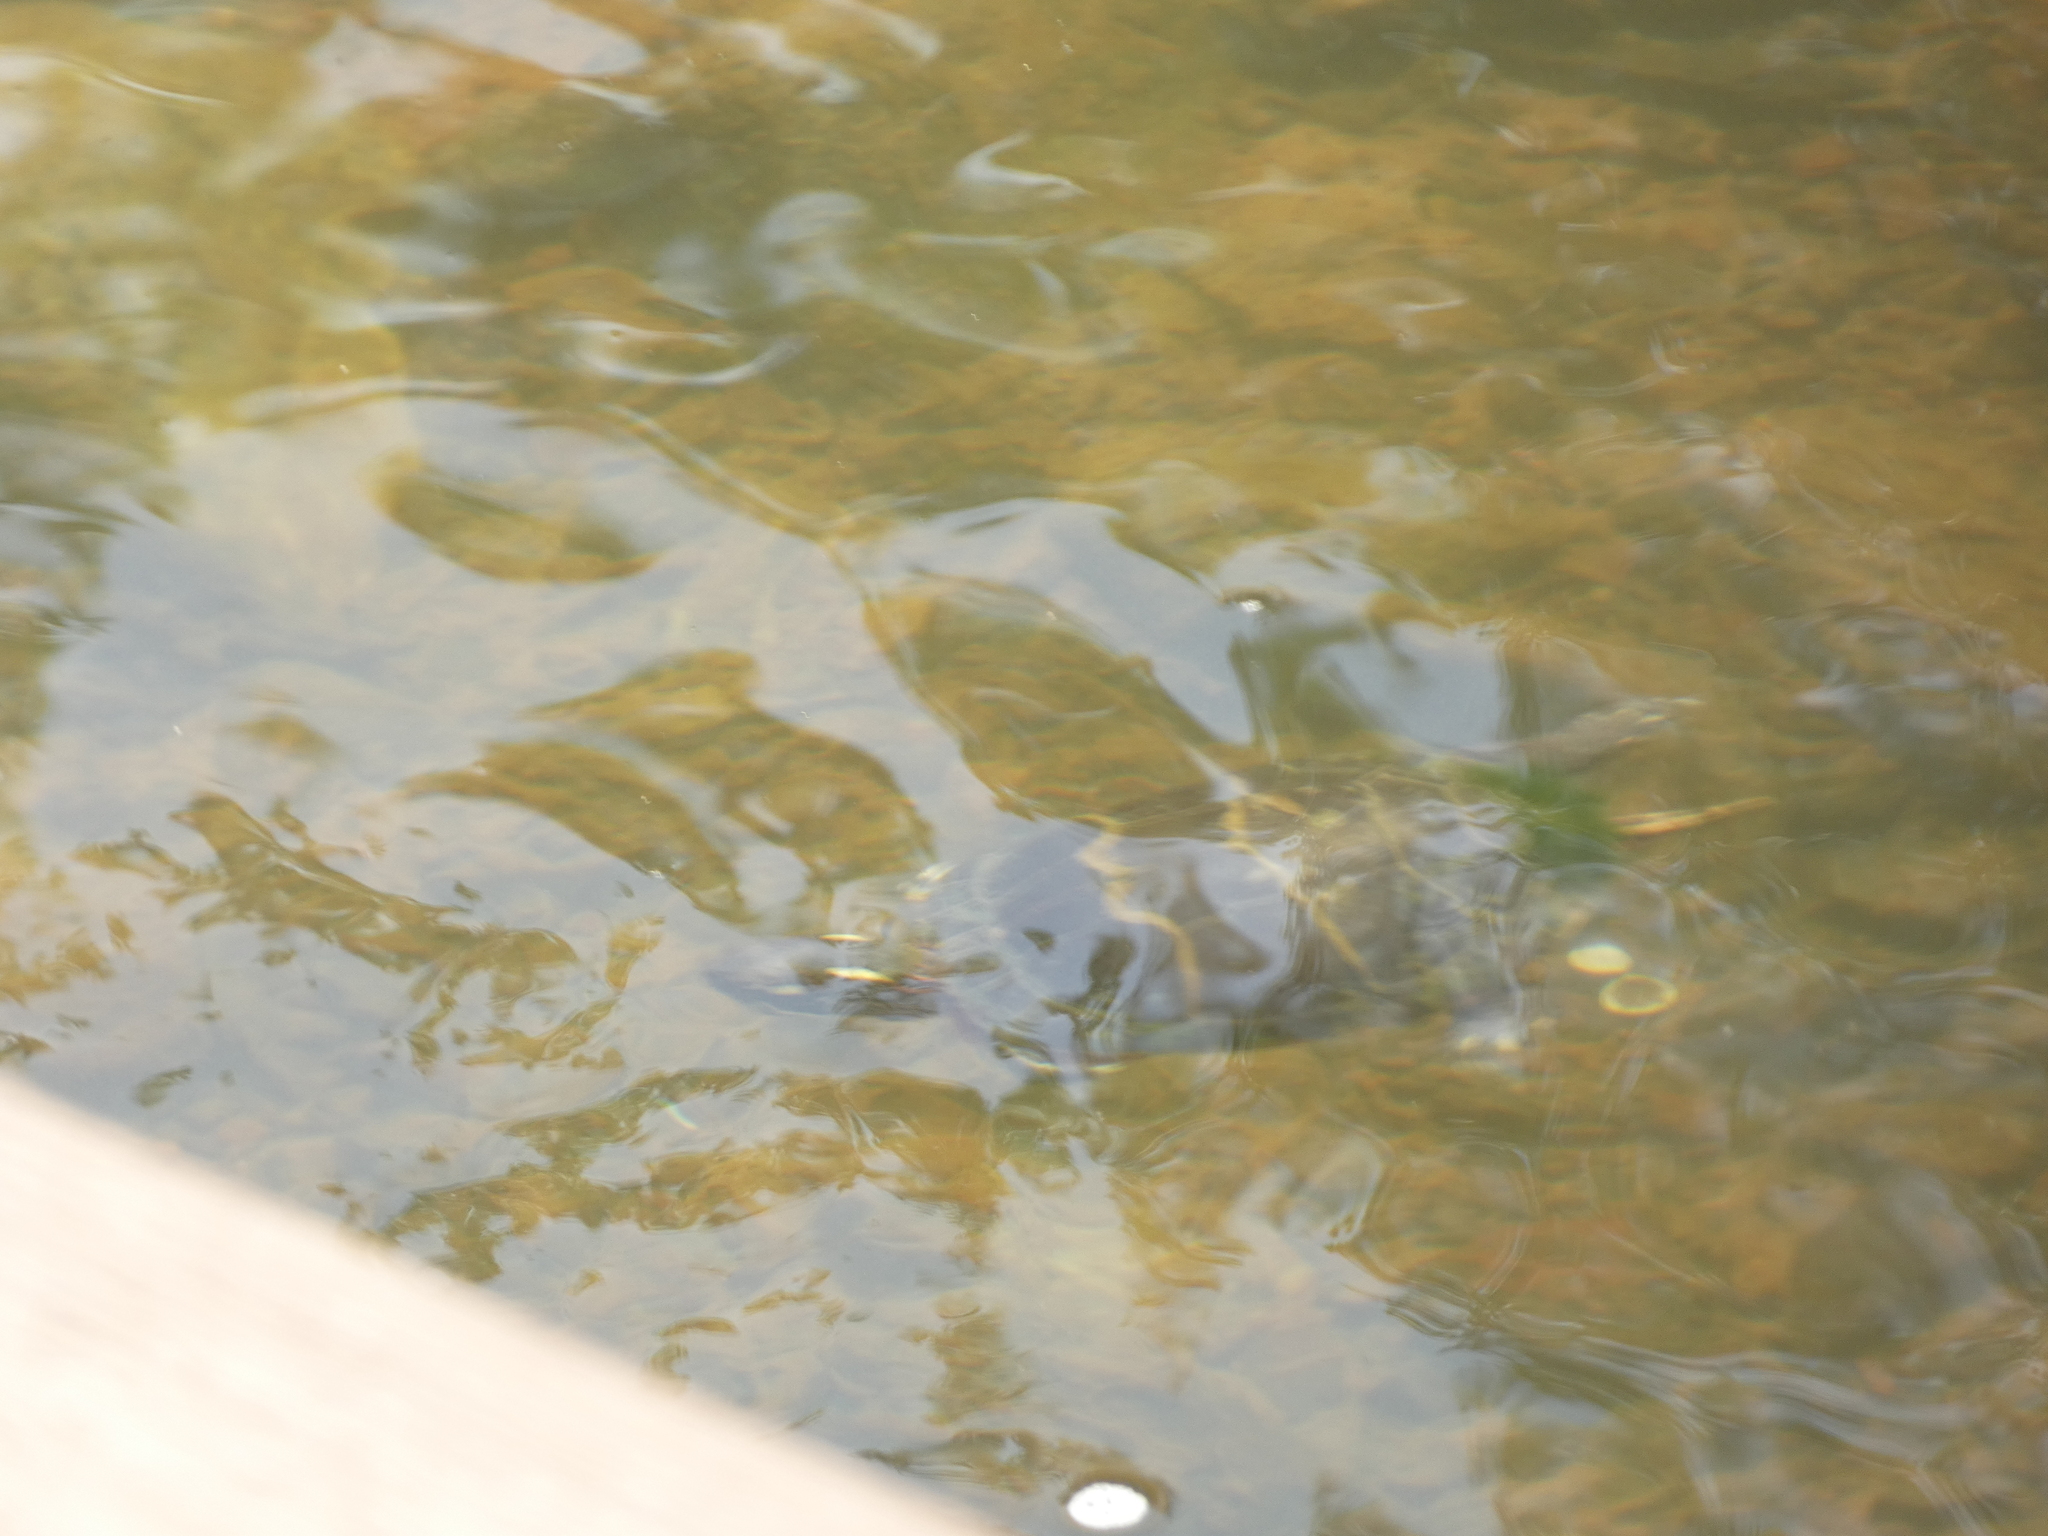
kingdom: Animalia
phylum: Chordata
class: Testudines
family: Emydidae
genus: Chrysemys
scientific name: Chrysemys picta
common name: Painted turtle
